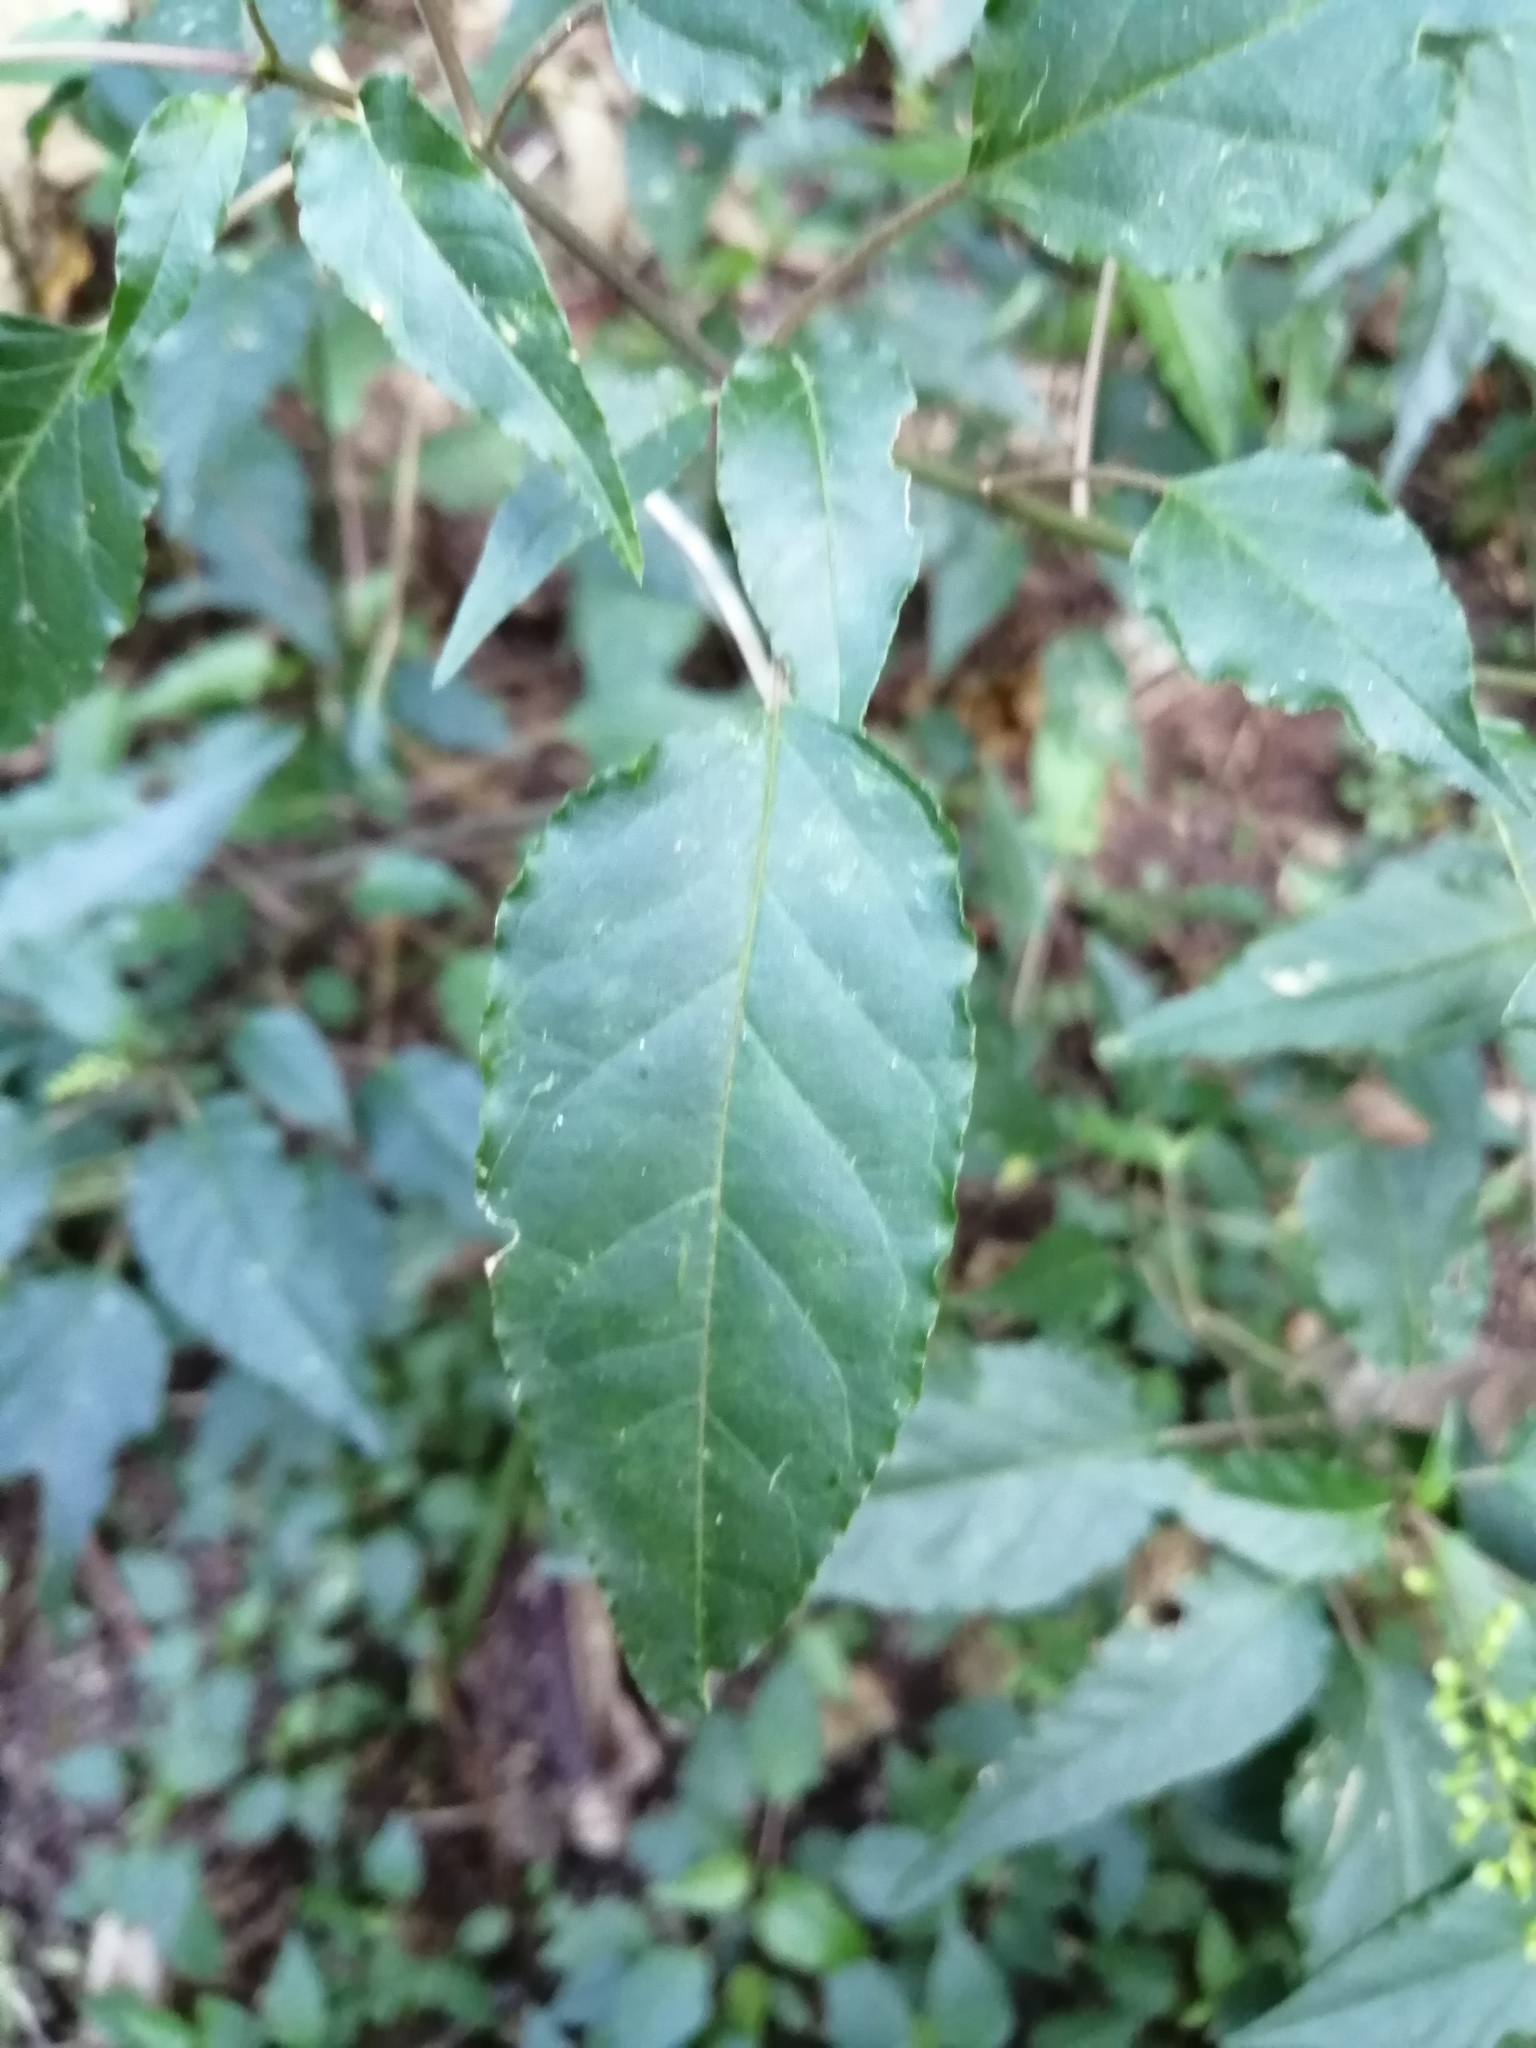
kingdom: Plantae
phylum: Tracheophyta
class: Magnoliopsida
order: Caryophyllales
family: Phytolaccaceae
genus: Rivina
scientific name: Rivina humilis
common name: Rougeplant
